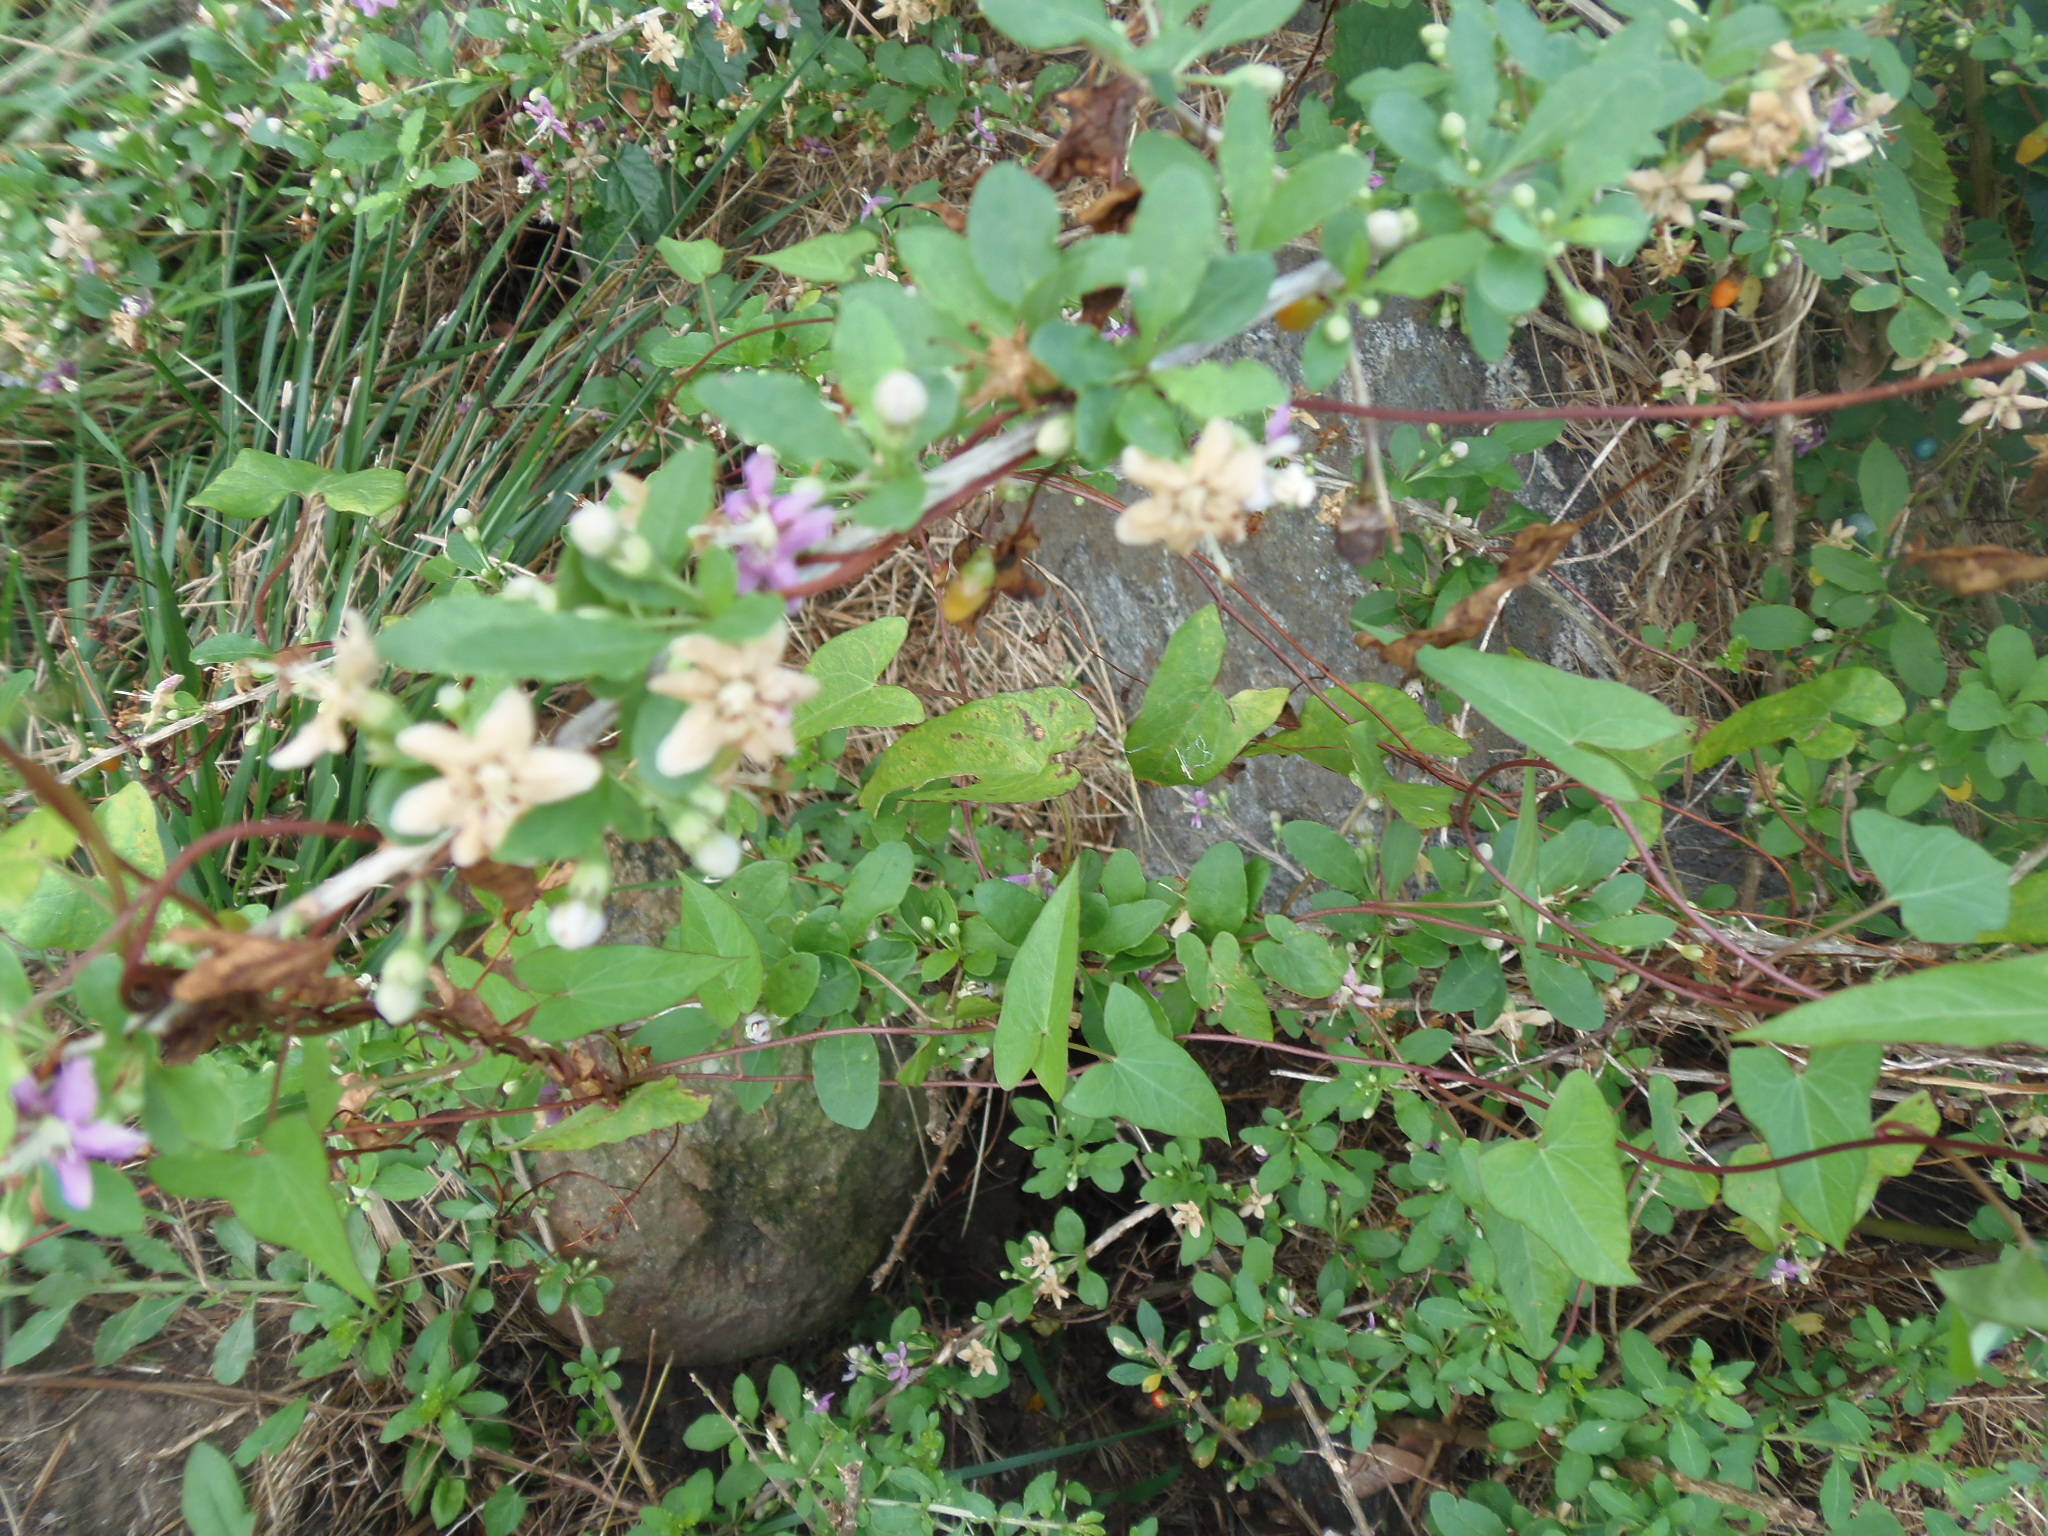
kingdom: Plantae
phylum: Tracheophyta
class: Magnoliopsida
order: Solanales
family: Solanaceae
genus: Lycium
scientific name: Lycium barbarum
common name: Duke of argyll's teaplant
